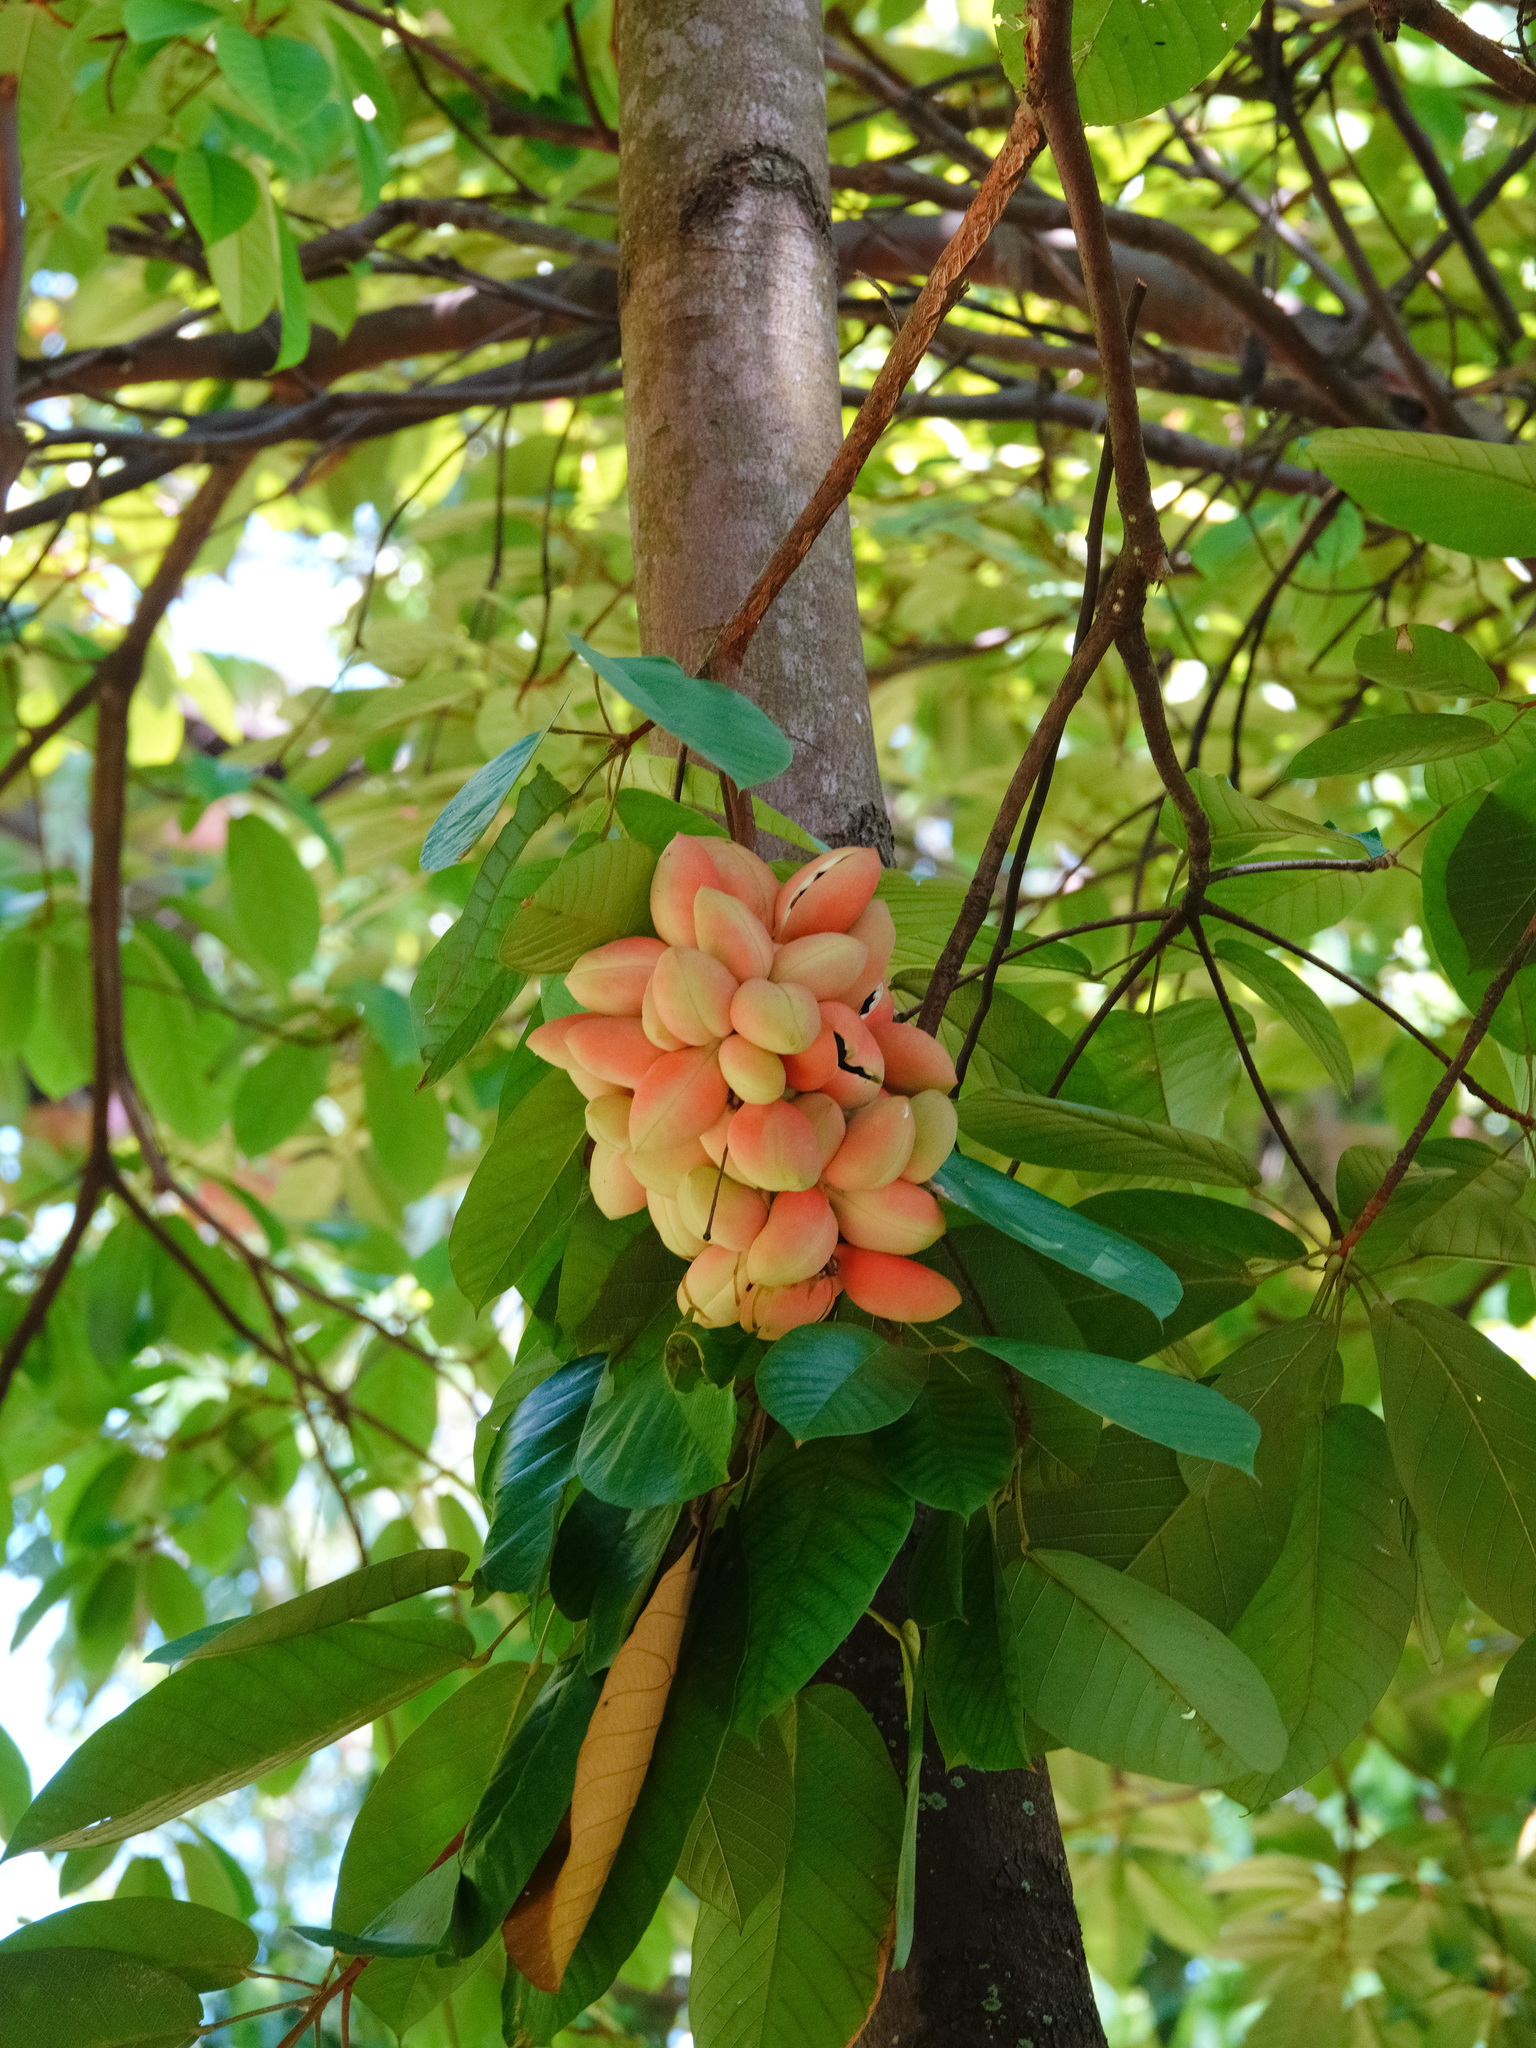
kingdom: Plantae
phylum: Tracheophyta
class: Magnoliopsida
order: Malvales
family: Malvaceae
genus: Sterculia
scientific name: Sterculia cordata
